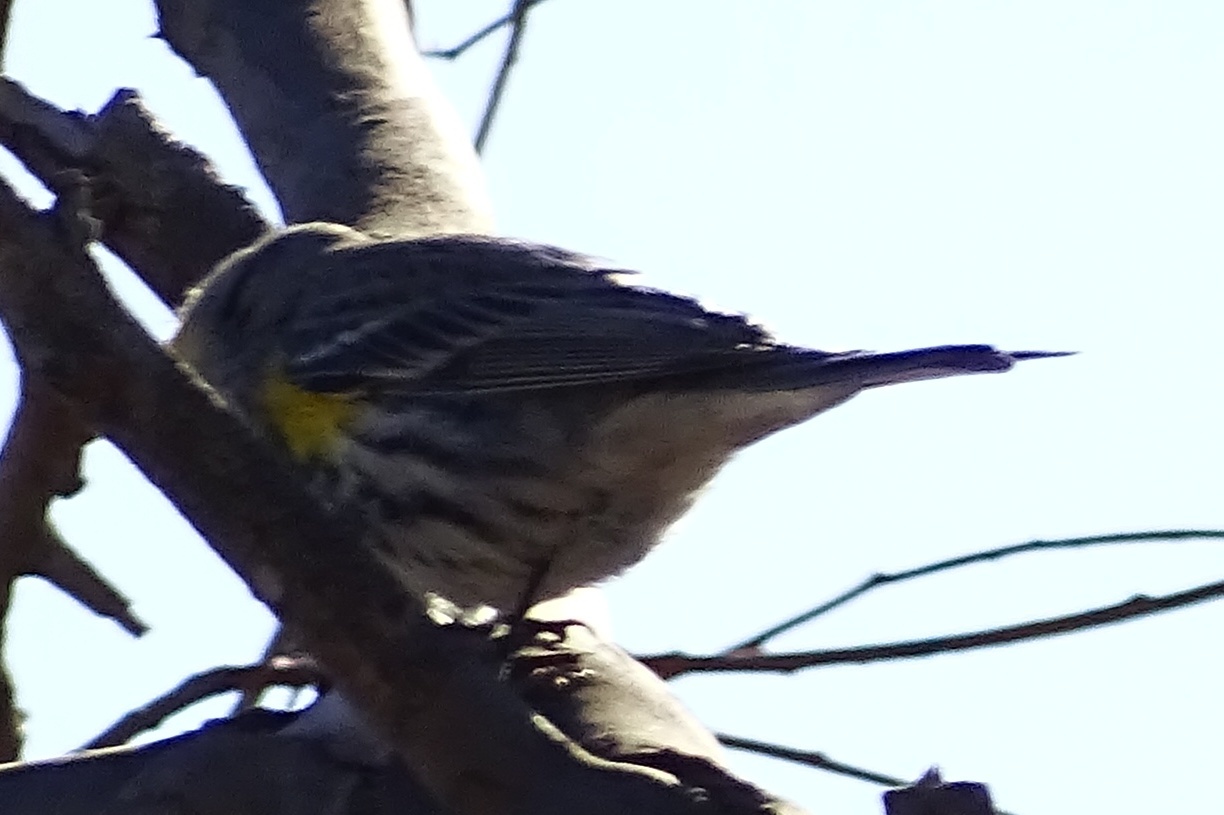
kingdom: Animalia
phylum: Chordata
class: Aves
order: Passeriformes
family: Parulidae
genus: Setophaga
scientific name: Setophaga coronata
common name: Myrtle warbler
